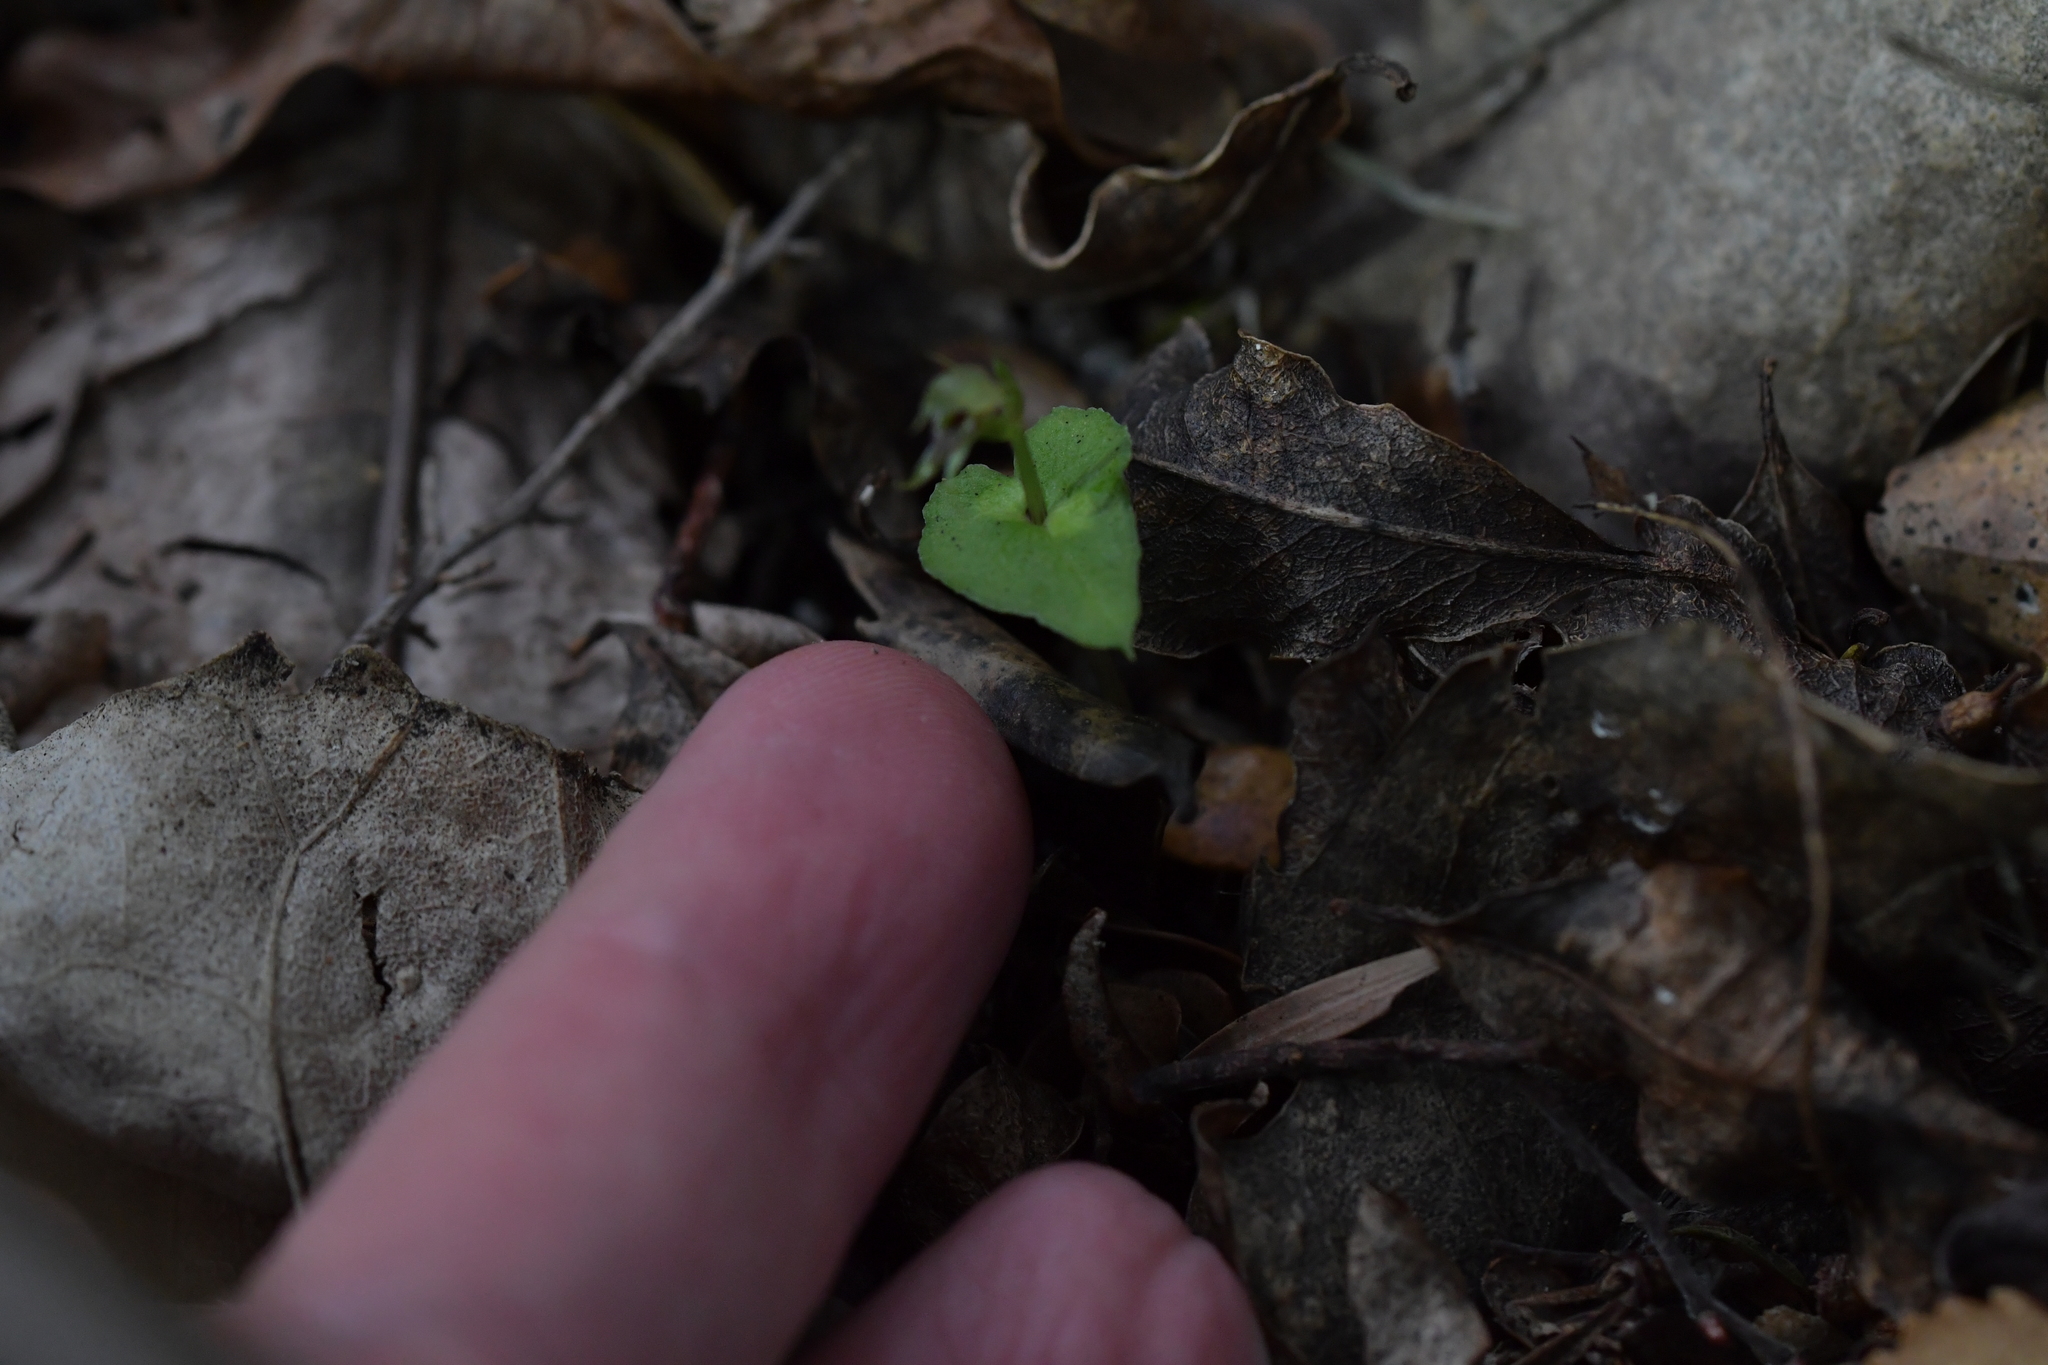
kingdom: Plantae
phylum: Tracheophyta
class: Liliopsida
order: Asparagales
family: Orchidaceae
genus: Acianthus
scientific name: Acianthus sinclairii
